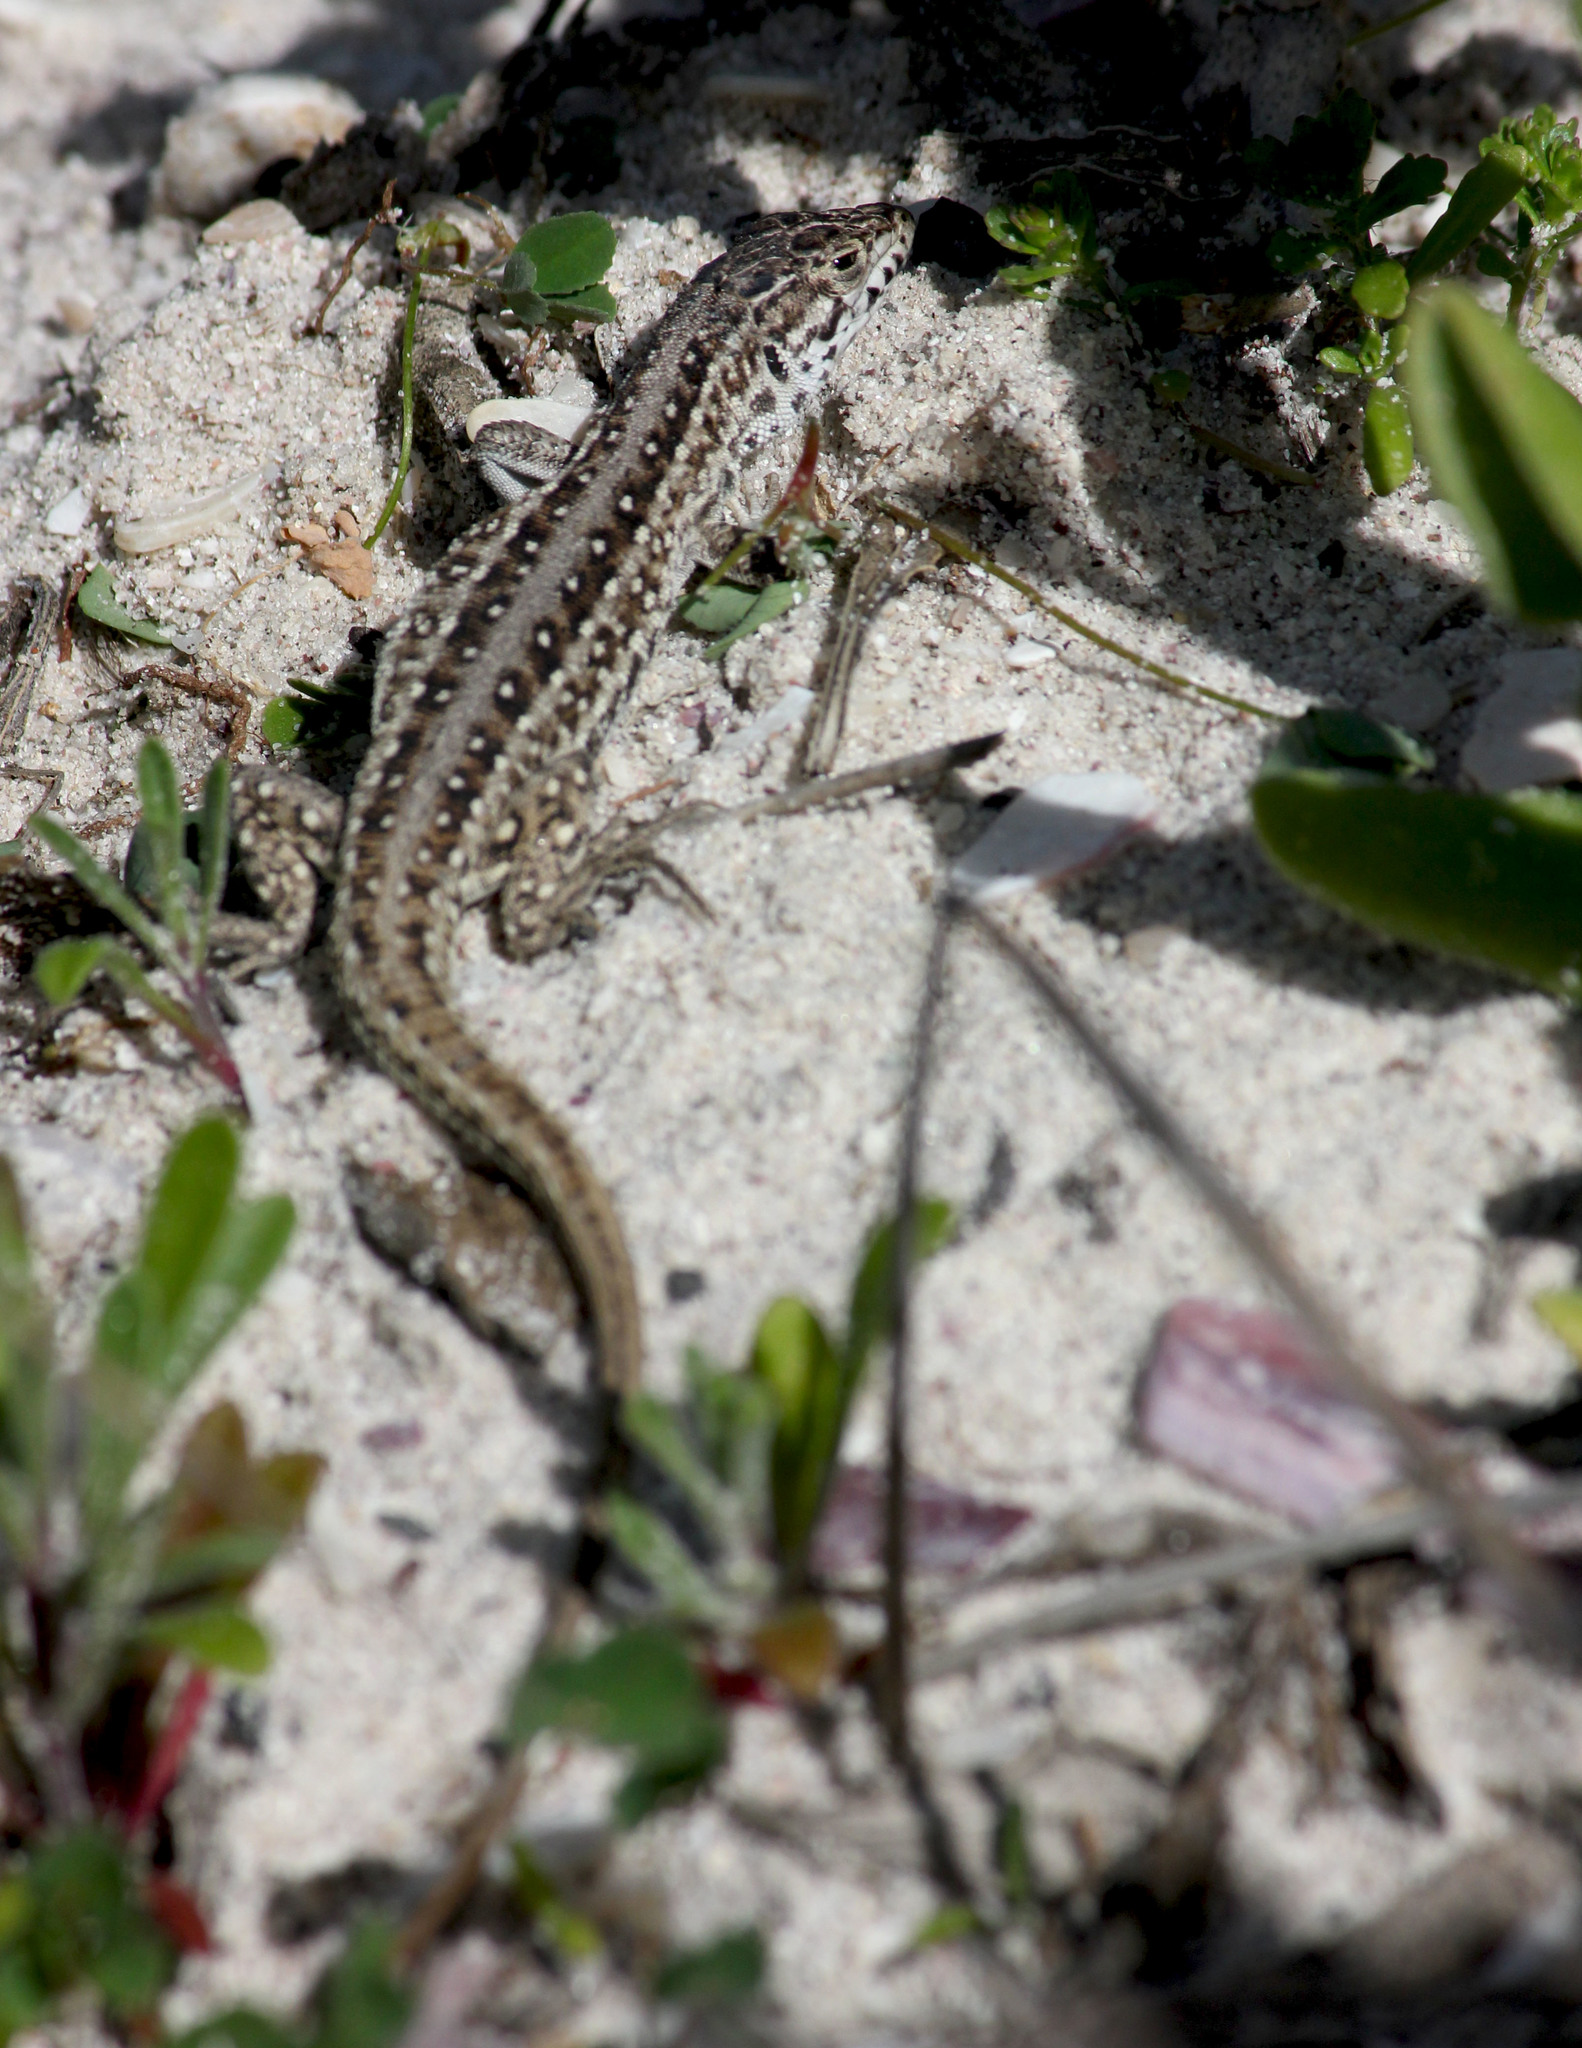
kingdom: Animalia
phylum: Chordata
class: Squamata
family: Lacertidae
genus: Meroles
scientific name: Meroles knoxii
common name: Knox's desert lizard
